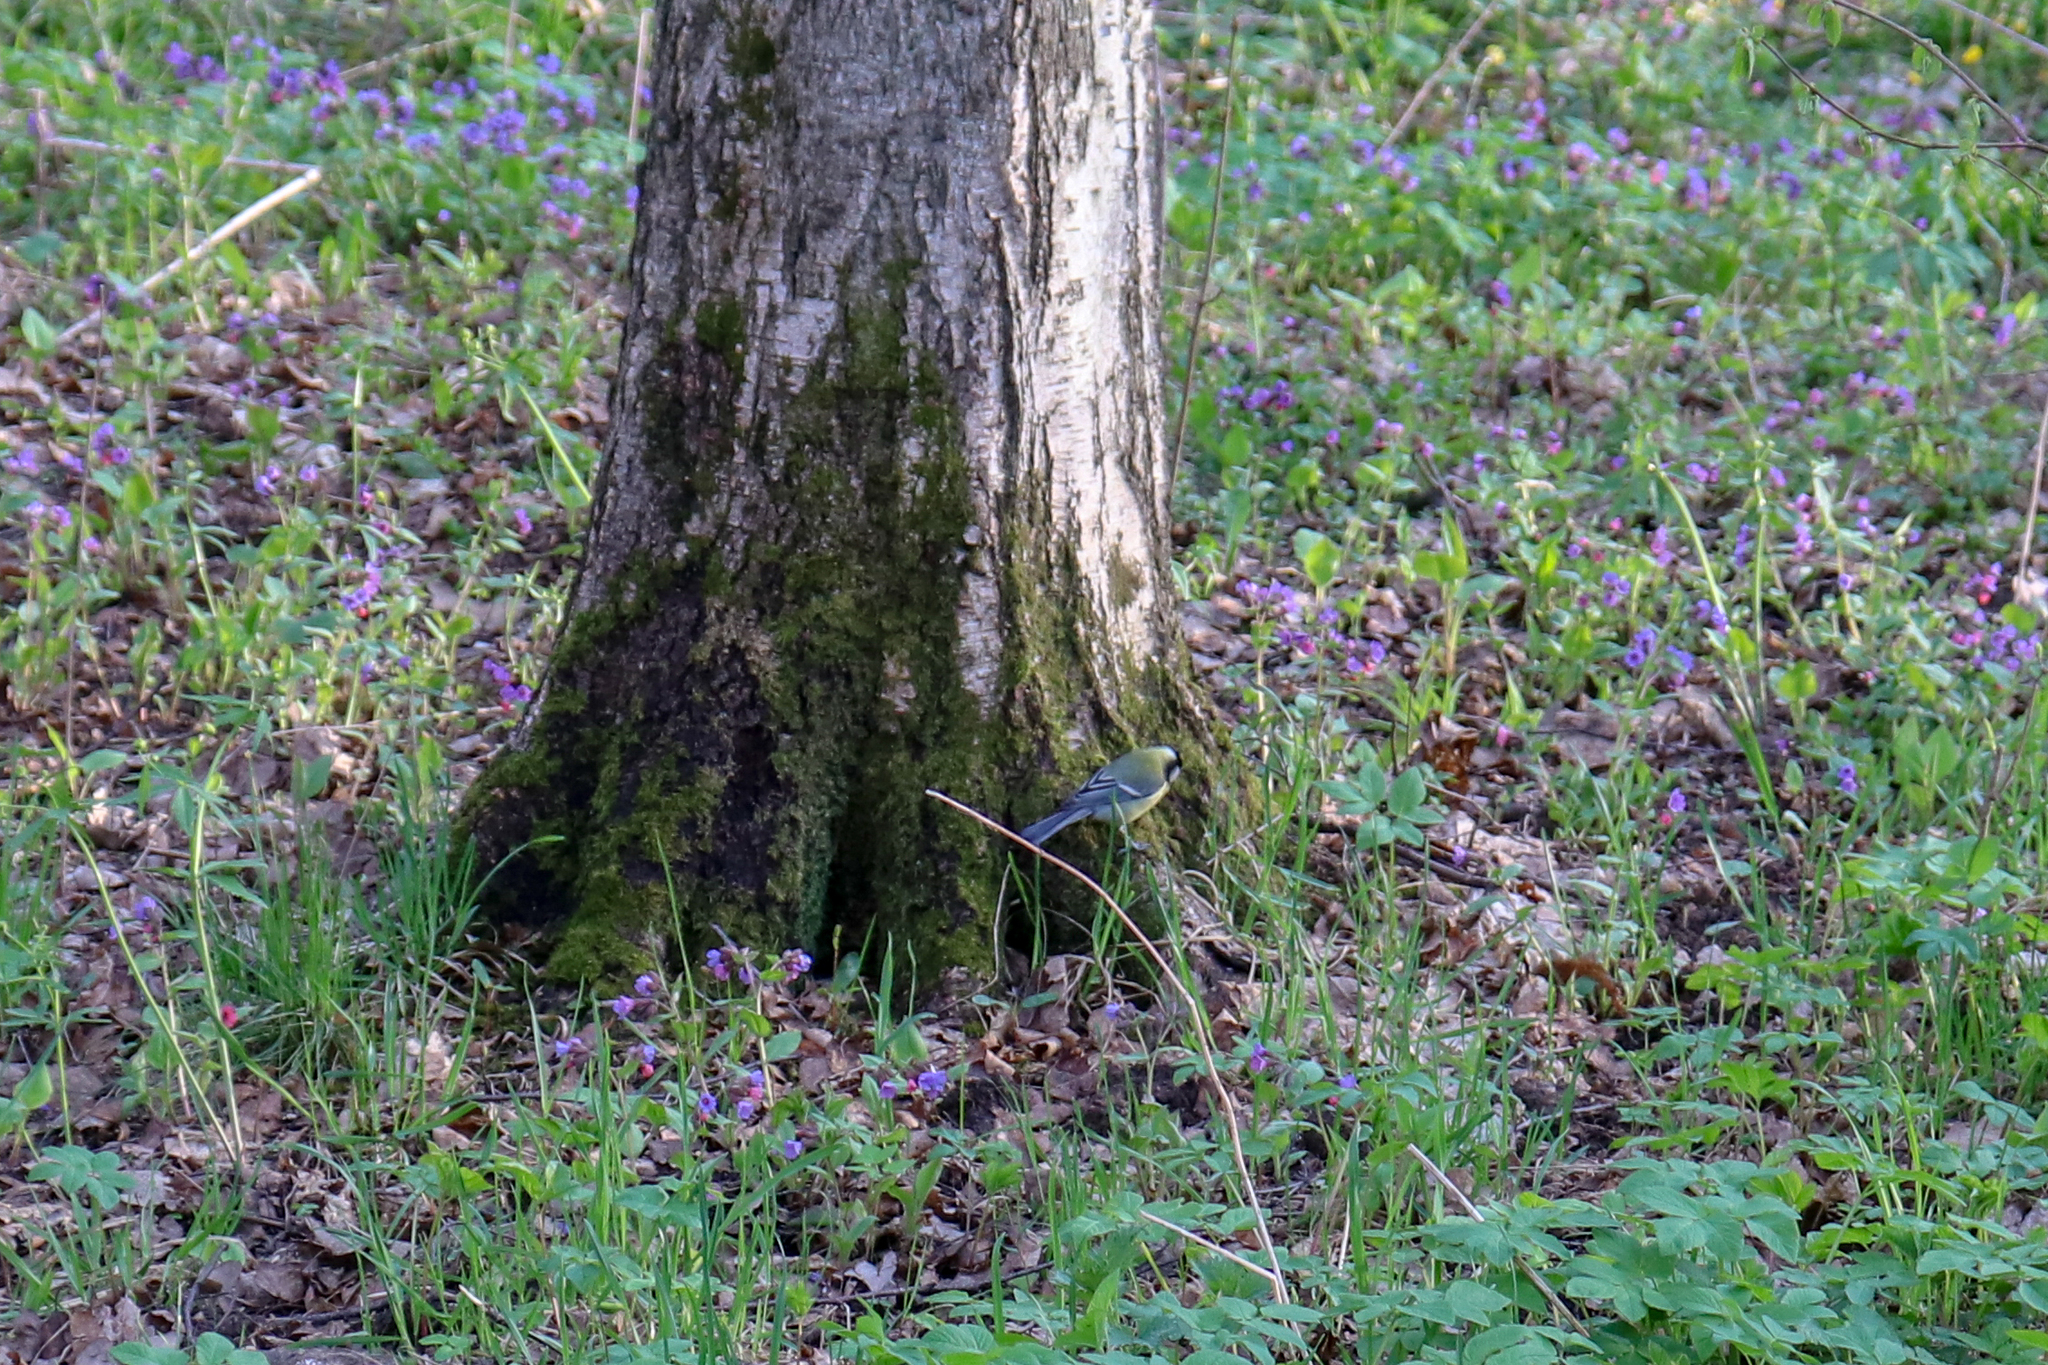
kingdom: Animalia
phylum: Chordata
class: Aves
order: Passeriformes
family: Paridae
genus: Parus
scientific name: Parus major
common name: Great tit
